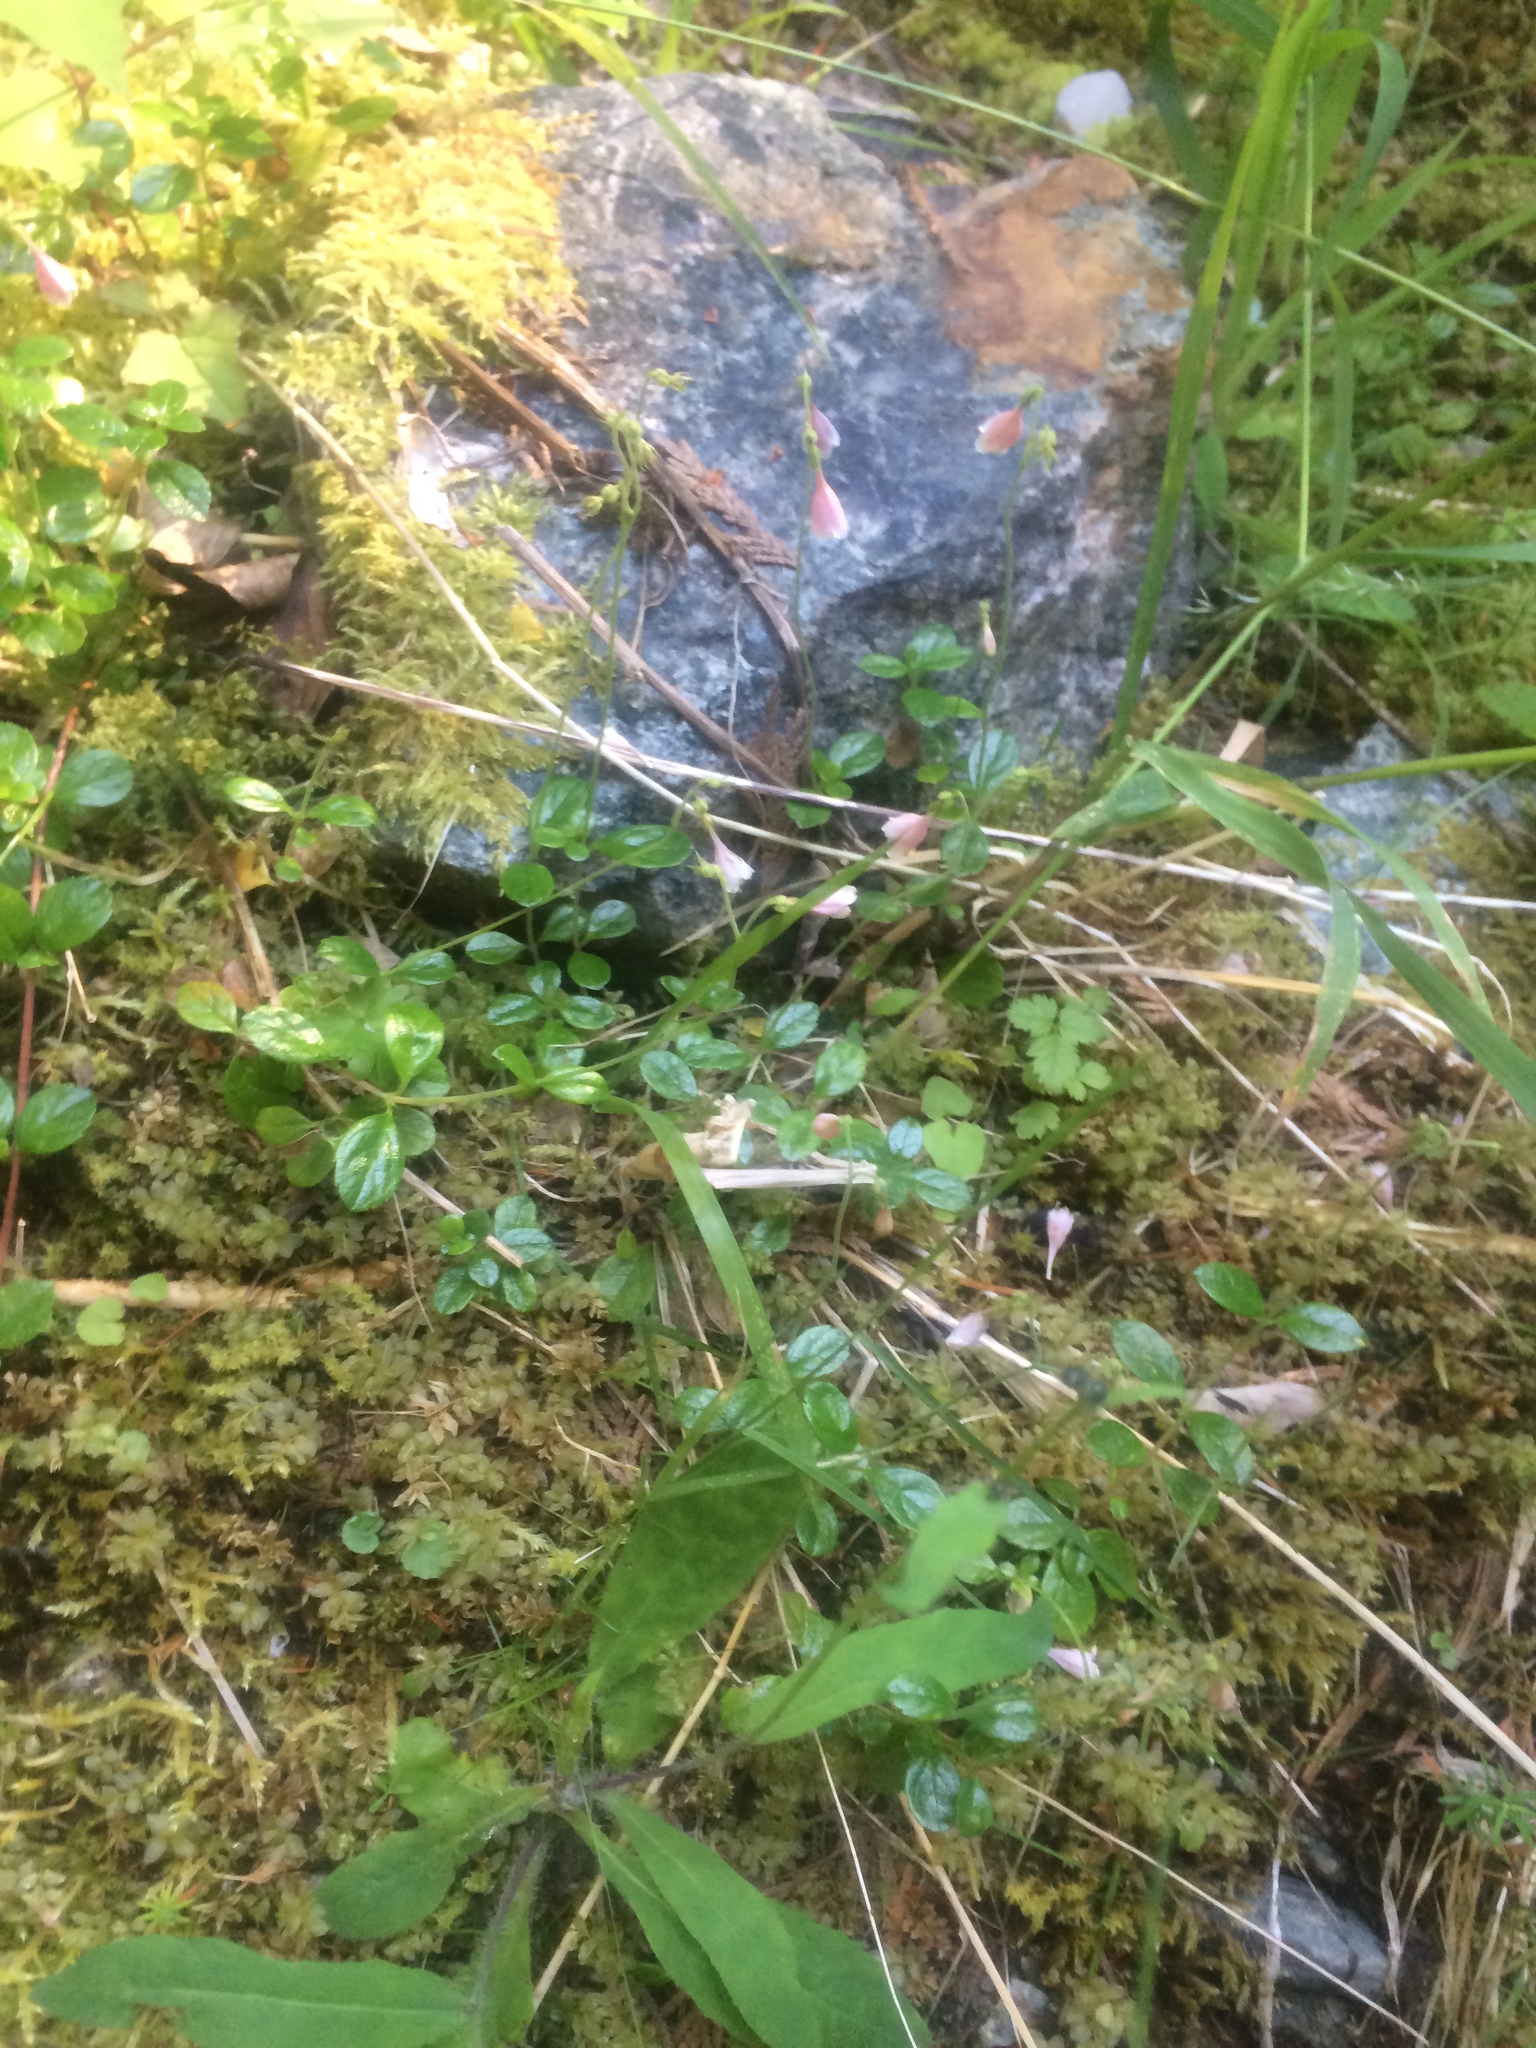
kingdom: Plantae
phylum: Tracheophyta
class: Magnoliopsida
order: Dipsacales
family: Caprifoliaceae
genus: Linnaea
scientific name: Linnaea borealis
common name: Twinflower
